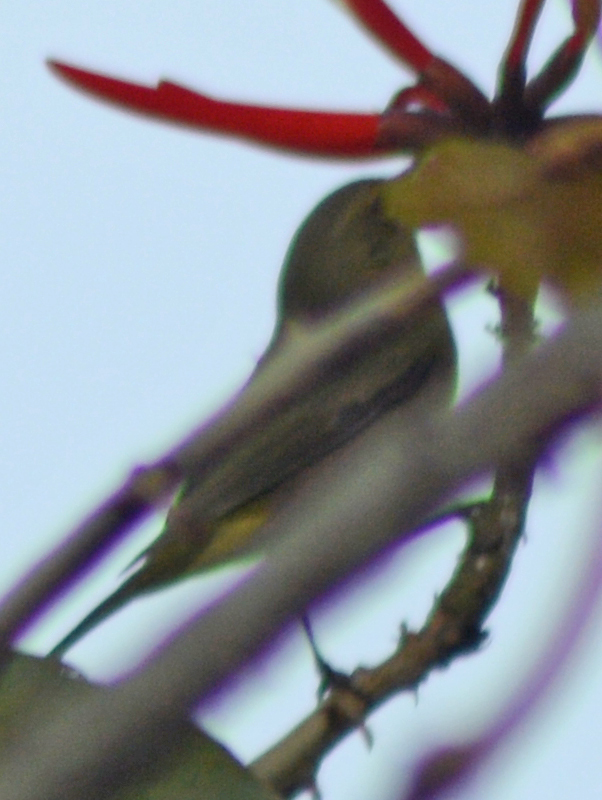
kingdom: Animalia
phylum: Chordata
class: Aves
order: Passeriformes
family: Parulidae
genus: Leiothlypis
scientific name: Leiothlypis celata
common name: Orange-crowned warbler
